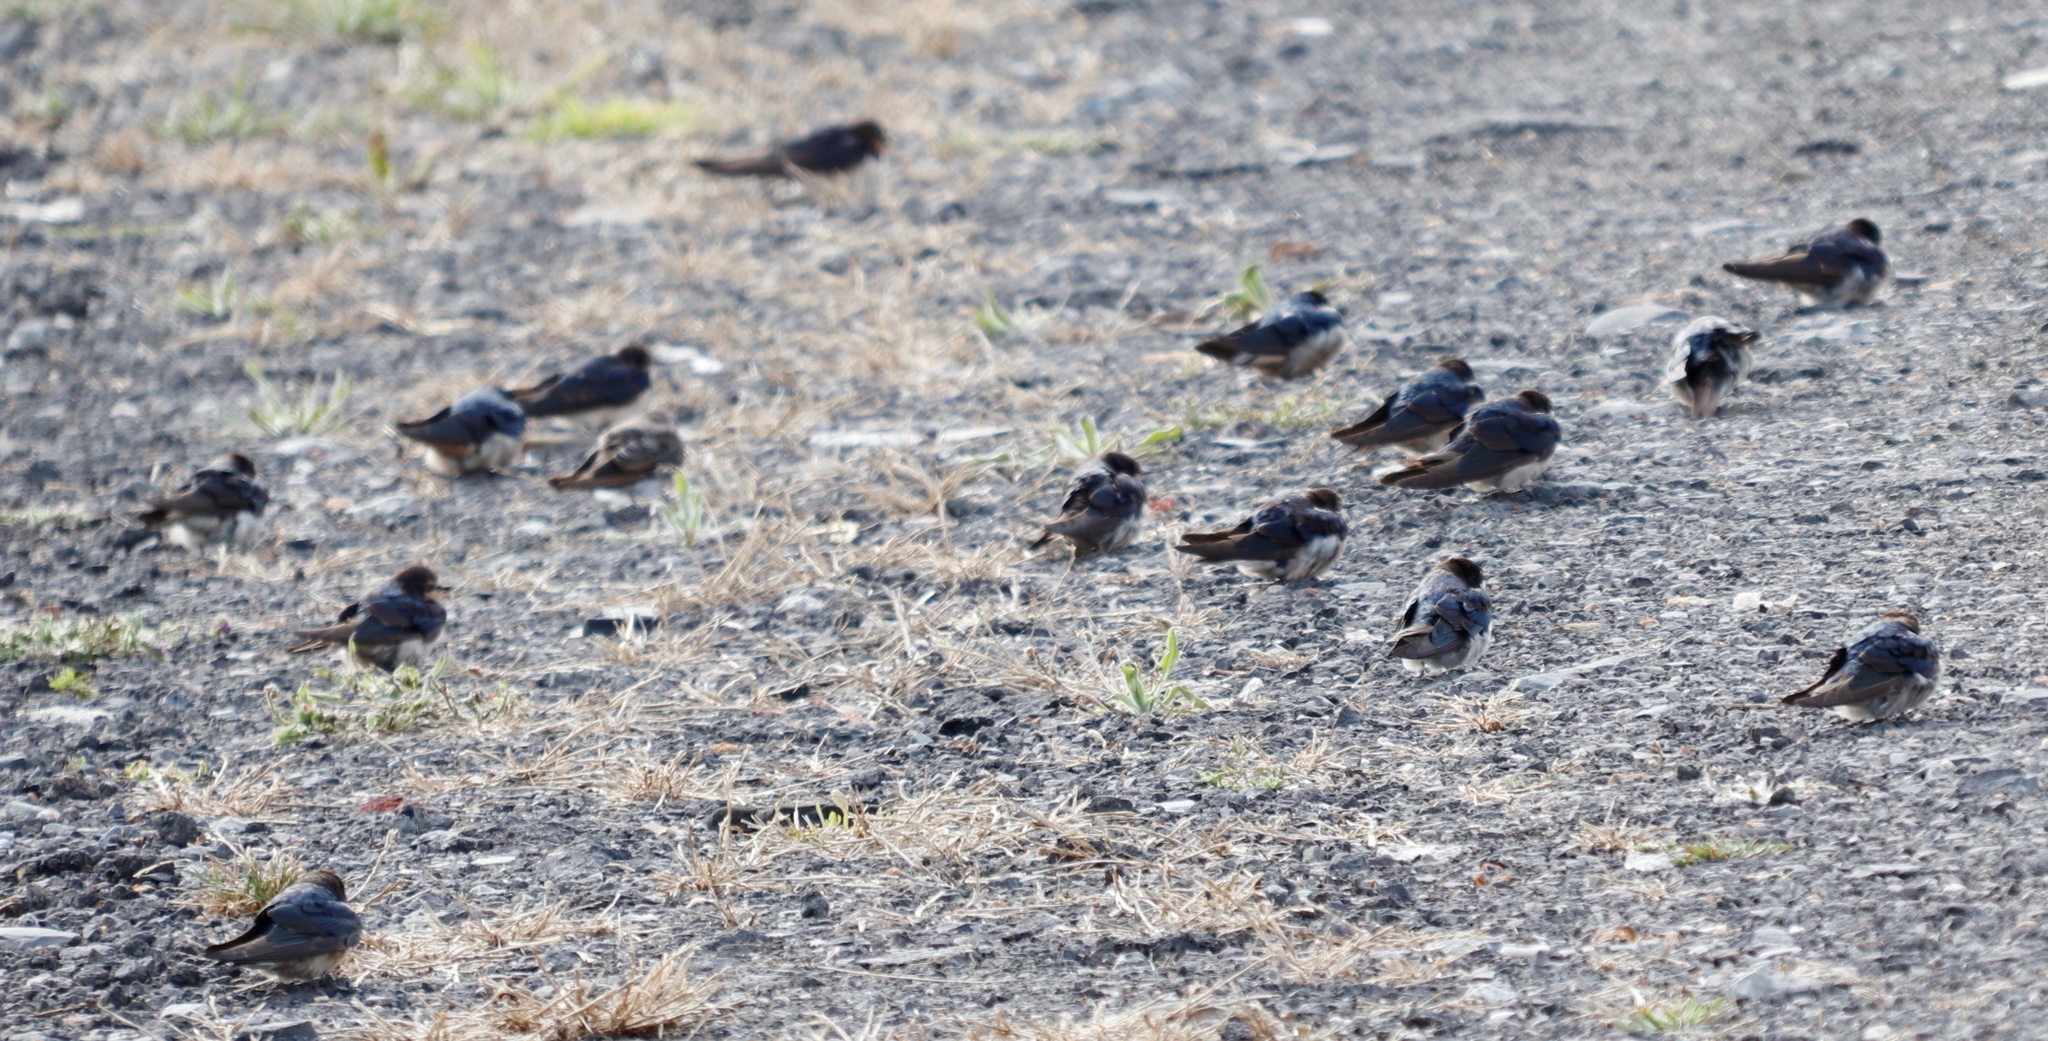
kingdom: Animalia
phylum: Chordata
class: Aves
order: Passeriformes
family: Hirundinidae
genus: Hirundo
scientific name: Hirundo rustica
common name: Barn swallow
